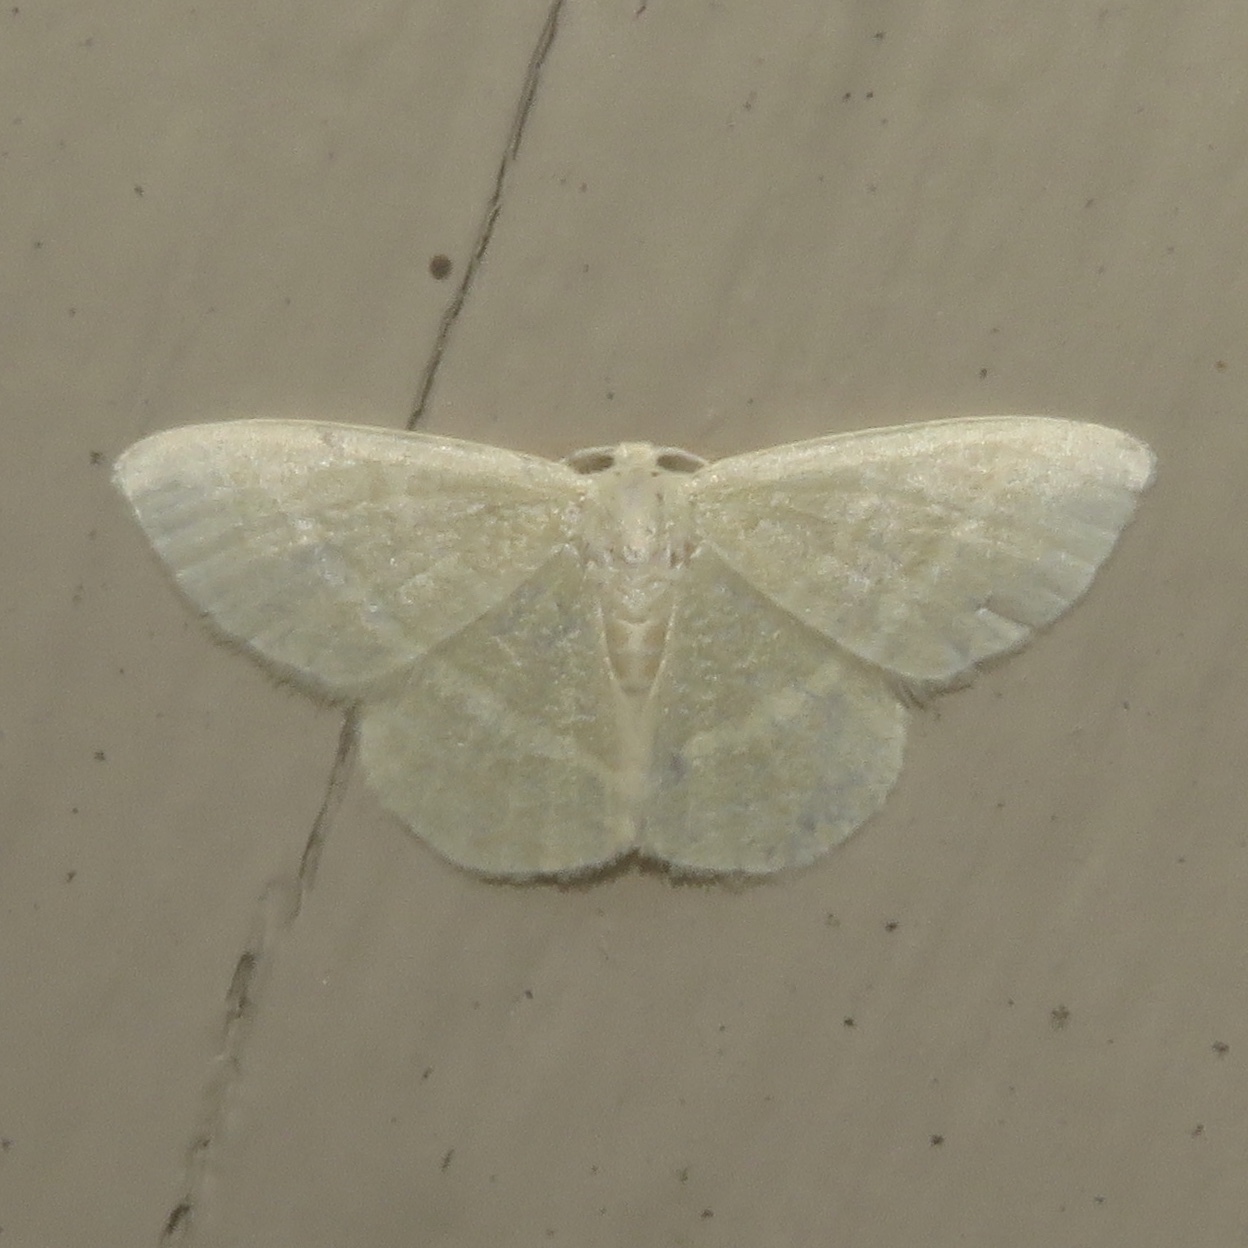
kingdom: Animalia
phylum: Arthropoda
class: Insecta
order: Lepidoptera
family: Geometridae
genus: Chlorochlamys
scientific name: Chlorochlamys chloroleucaria
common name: Blackberry looper
